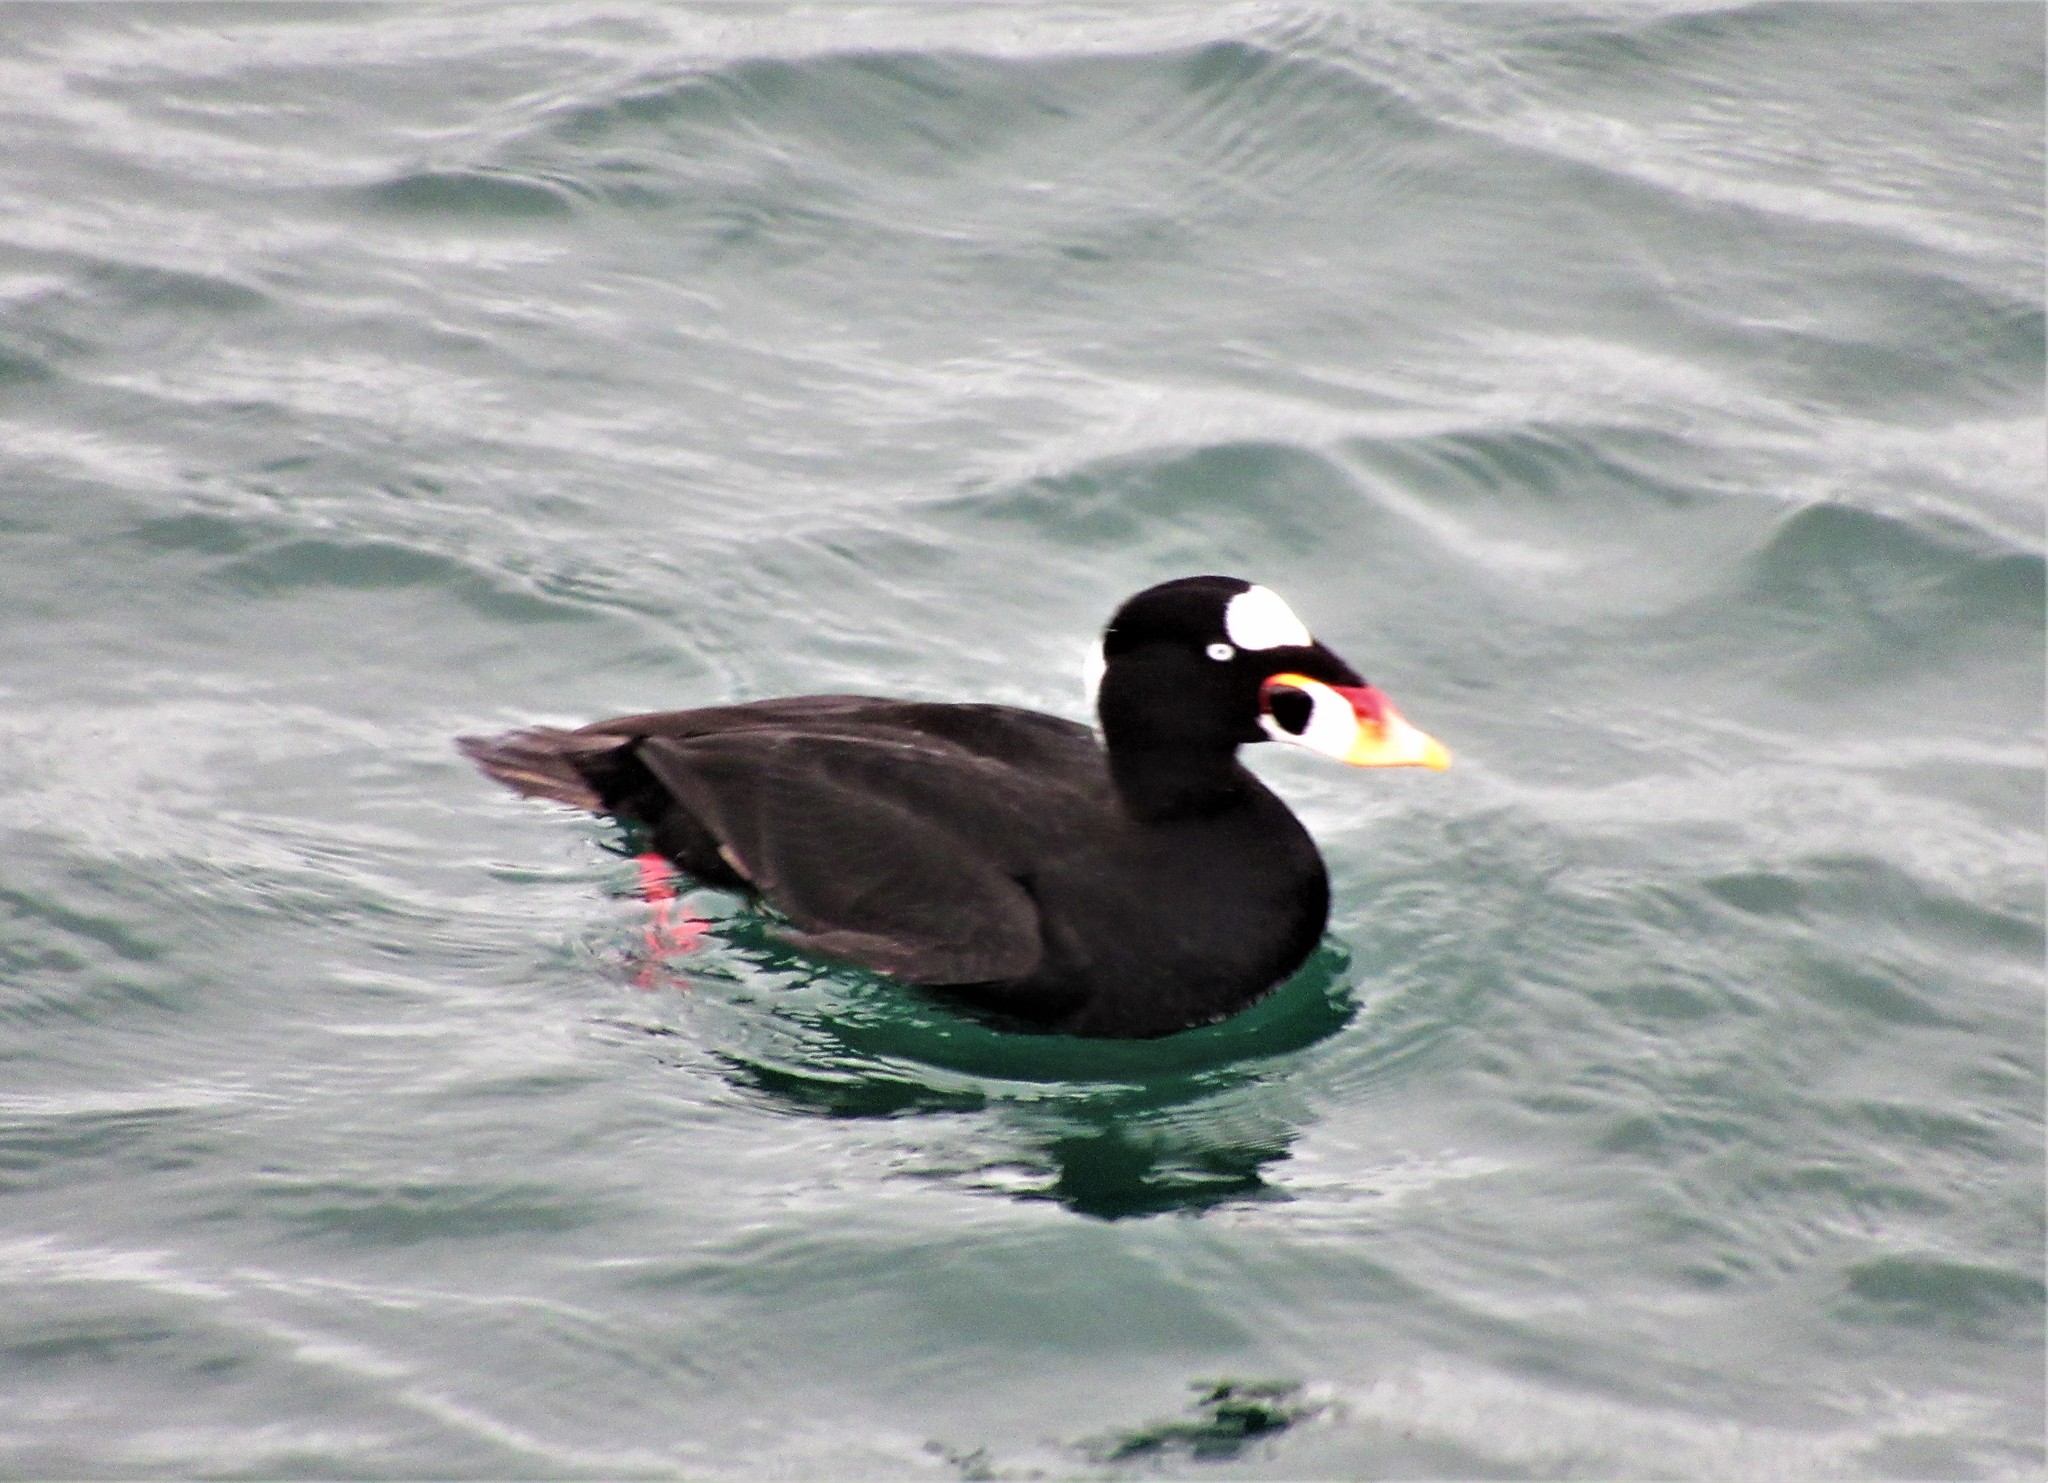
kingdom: Animalia
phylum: Chordata
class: Aves
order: Anseriformes
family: Anatidae
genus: Melanitta
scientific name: Melanitta perspicillata
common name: Surf scoter
